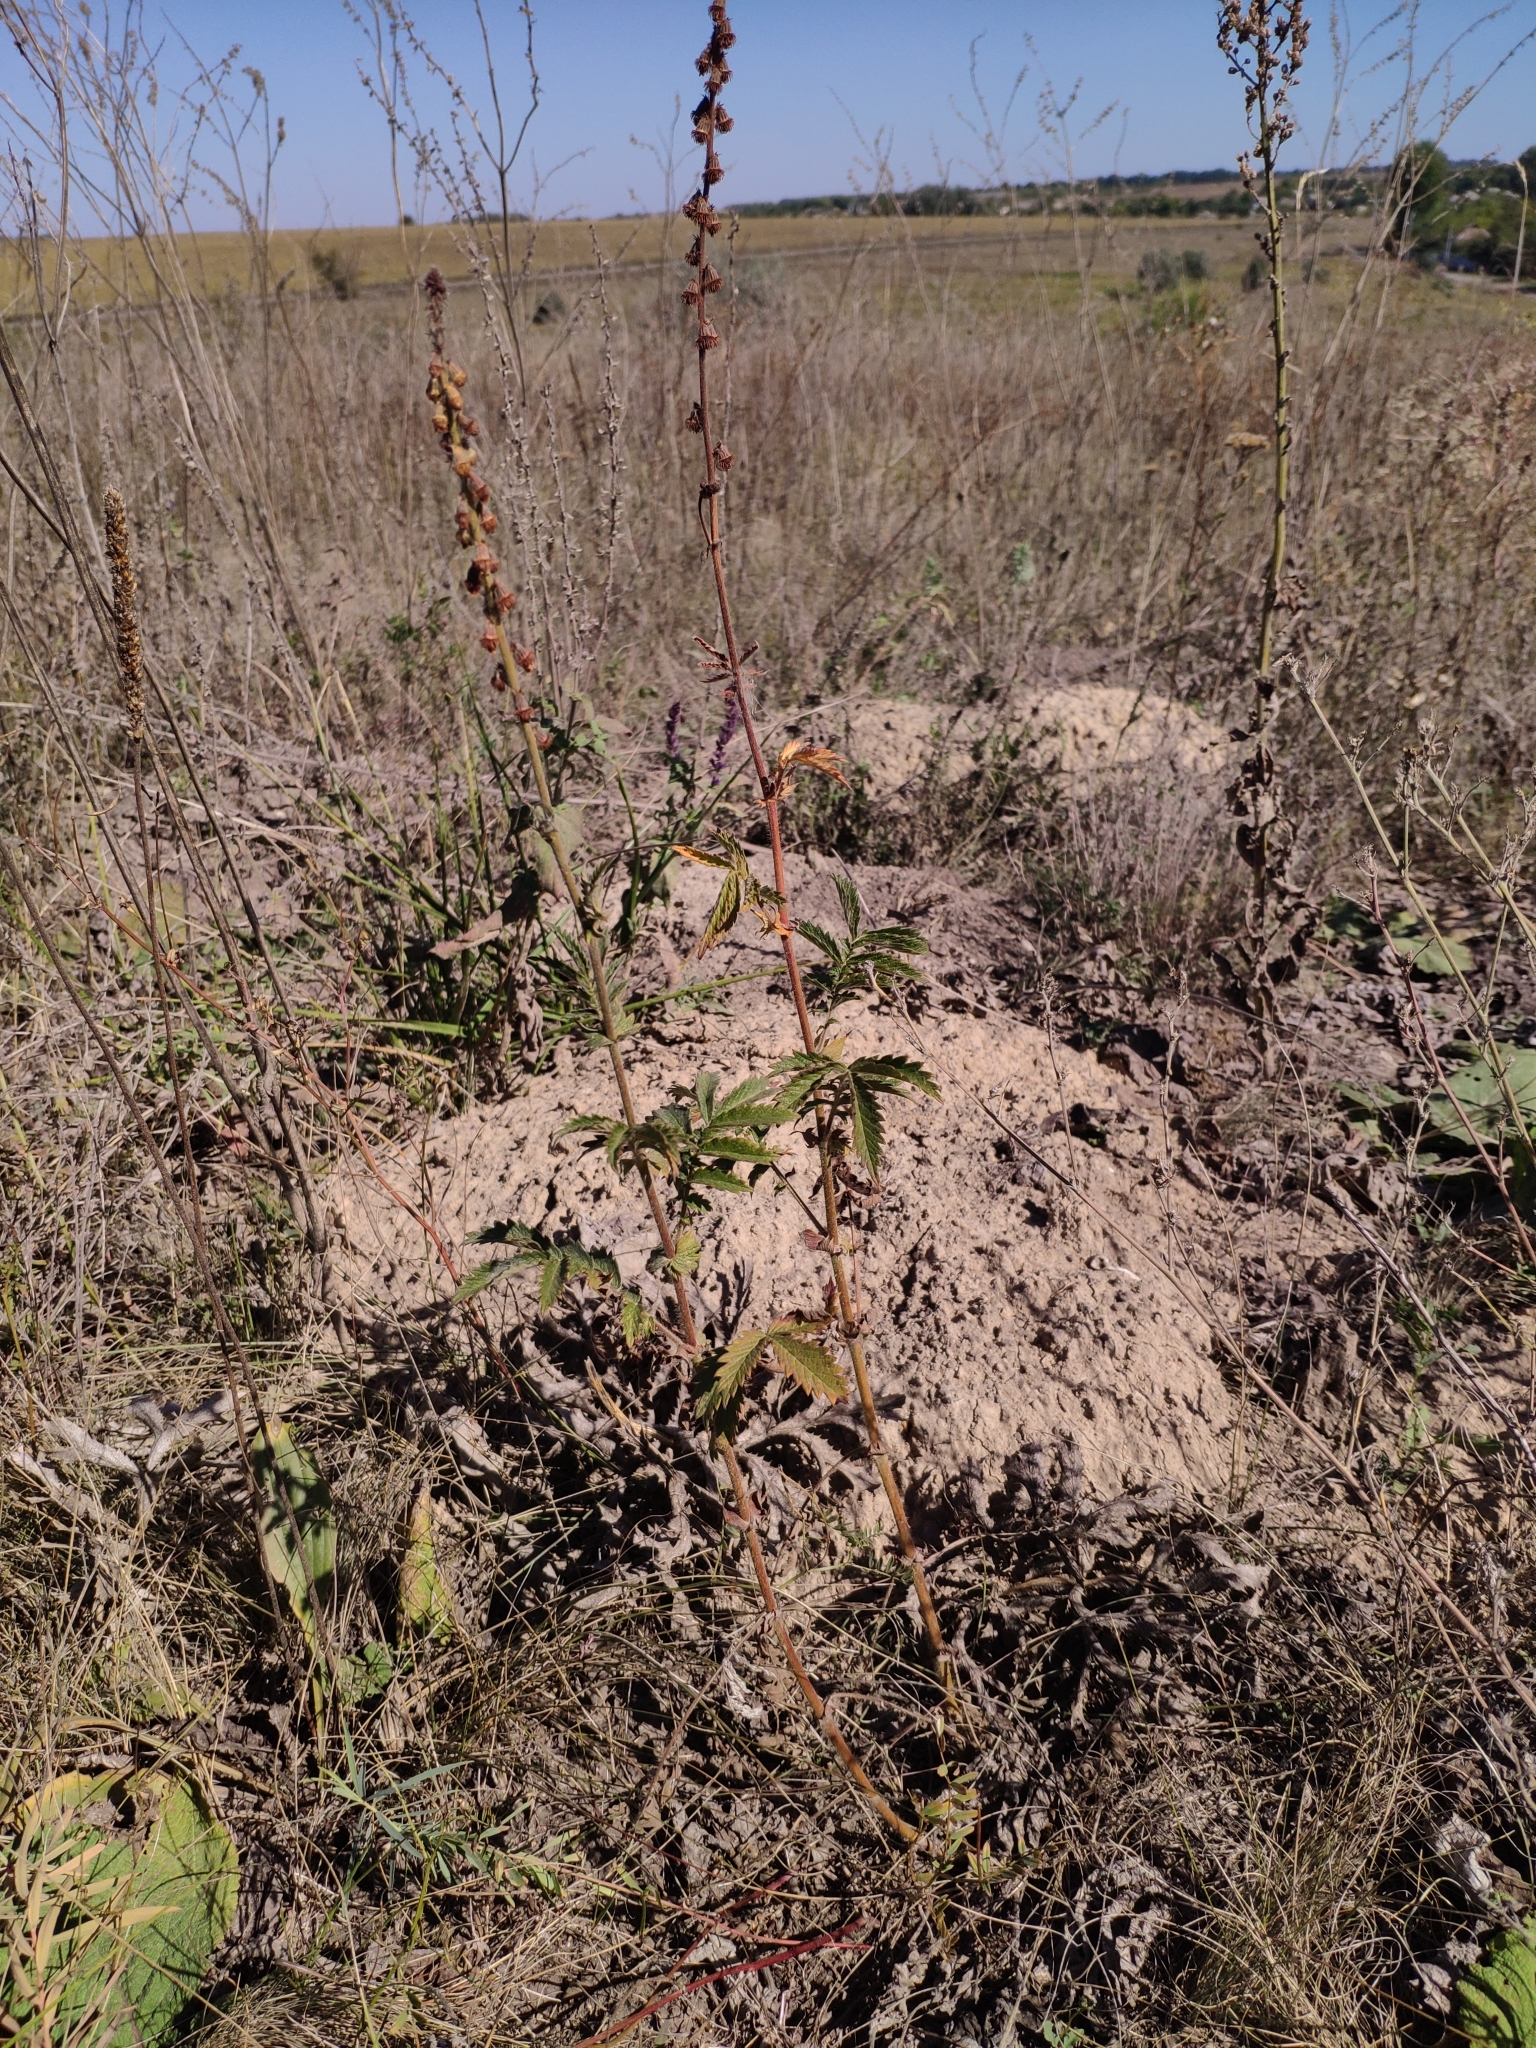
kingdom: Plantae
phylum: Tracheophyta
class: Magnoliopsida
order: Rosales
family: Rosaceae
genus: Agrimonia
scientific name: Agrimonia eupatoria
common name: Agrimony
